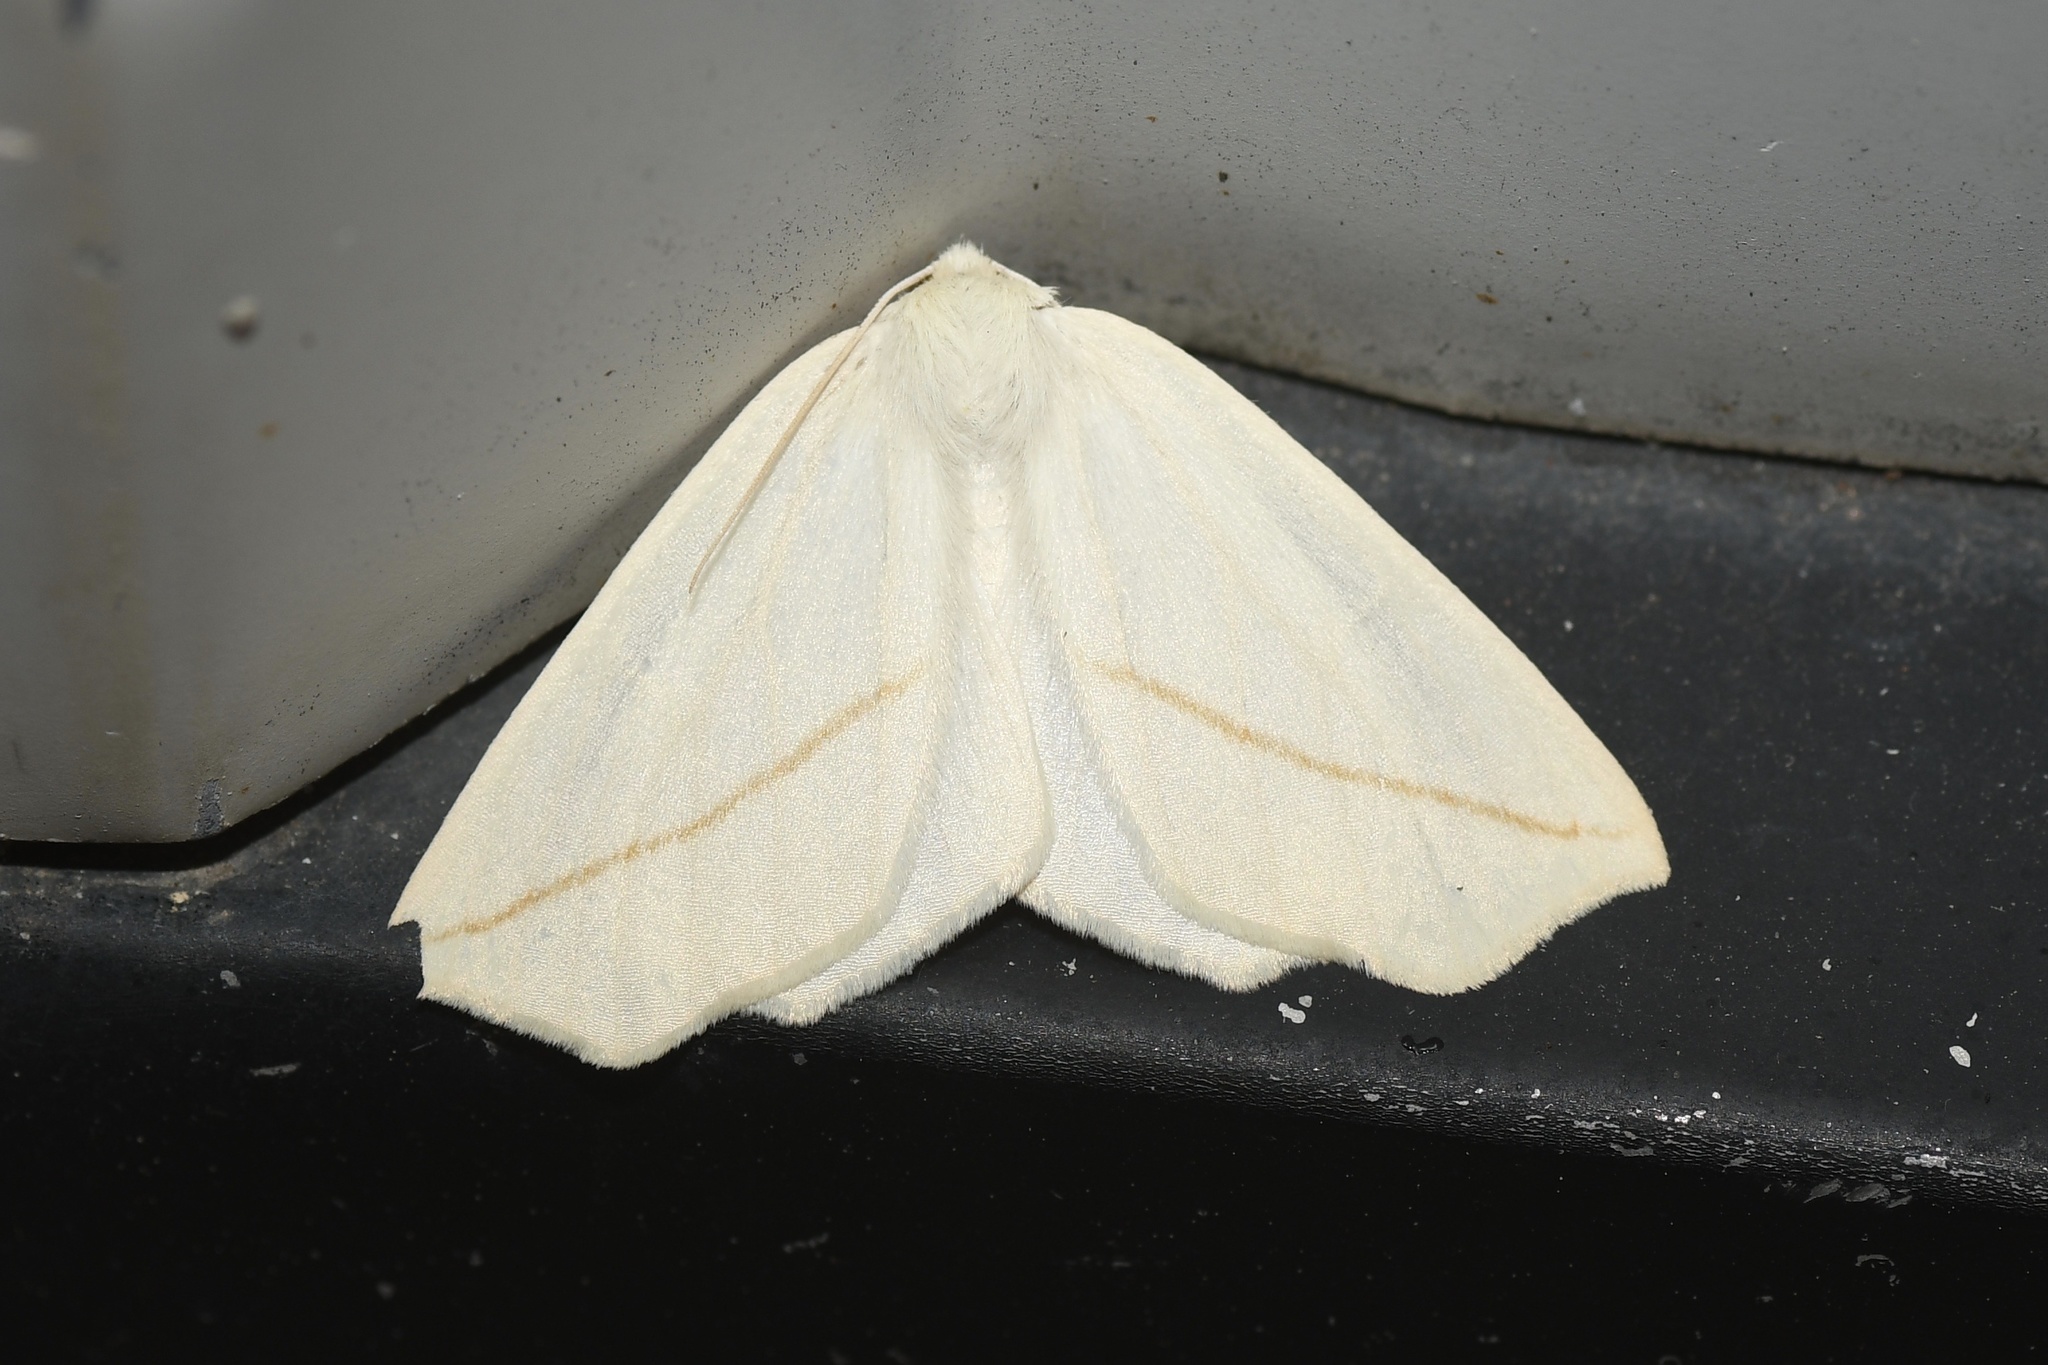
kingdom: Animalia
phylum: Arthropoda
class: Insecta
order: Lepidoptera
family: Geometridae
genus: Tetracis
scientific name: Tetracis cachexiata
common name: White slant-line
